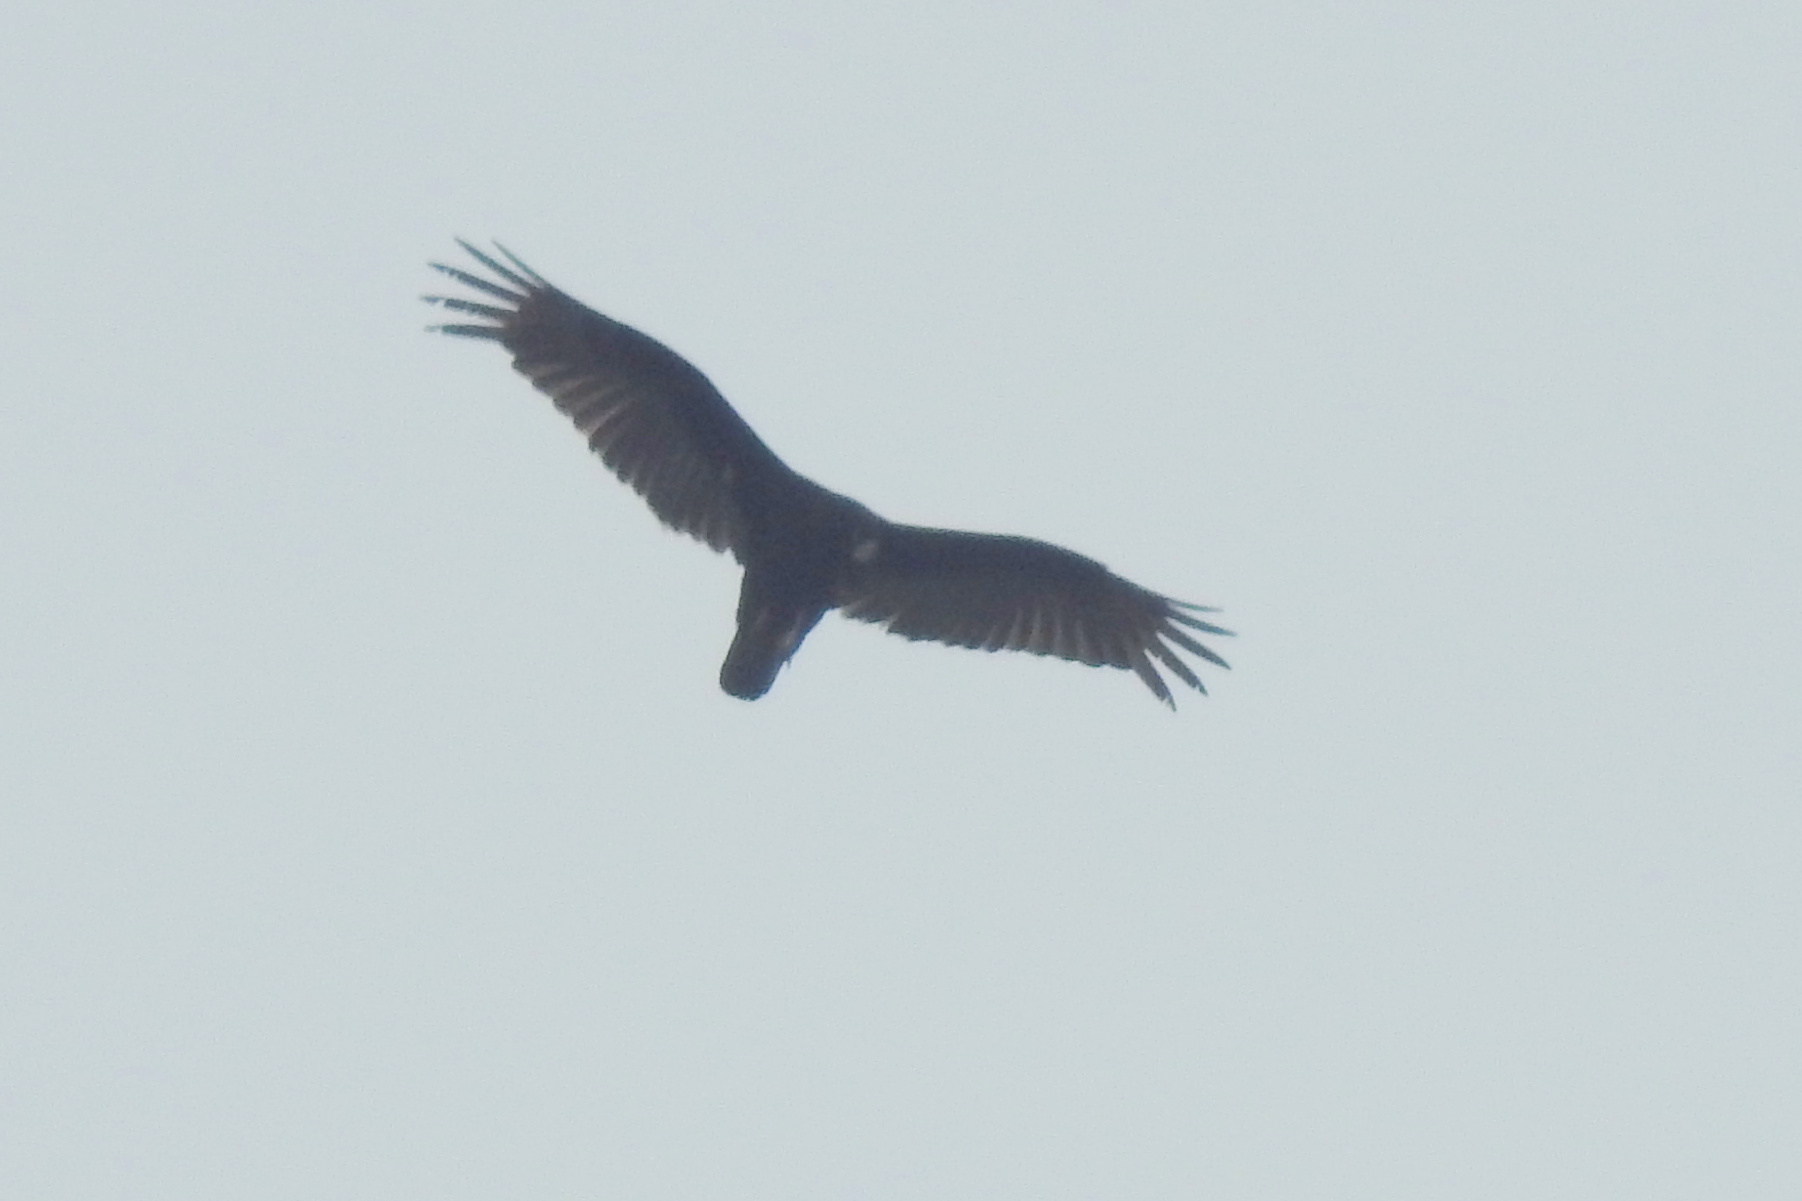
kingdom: Animalia
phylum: Chordata
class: Aves
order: Accipitriformes
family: Cathartidae
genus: Cathartes
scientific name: Cathartes aura
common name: Turkey vulture
